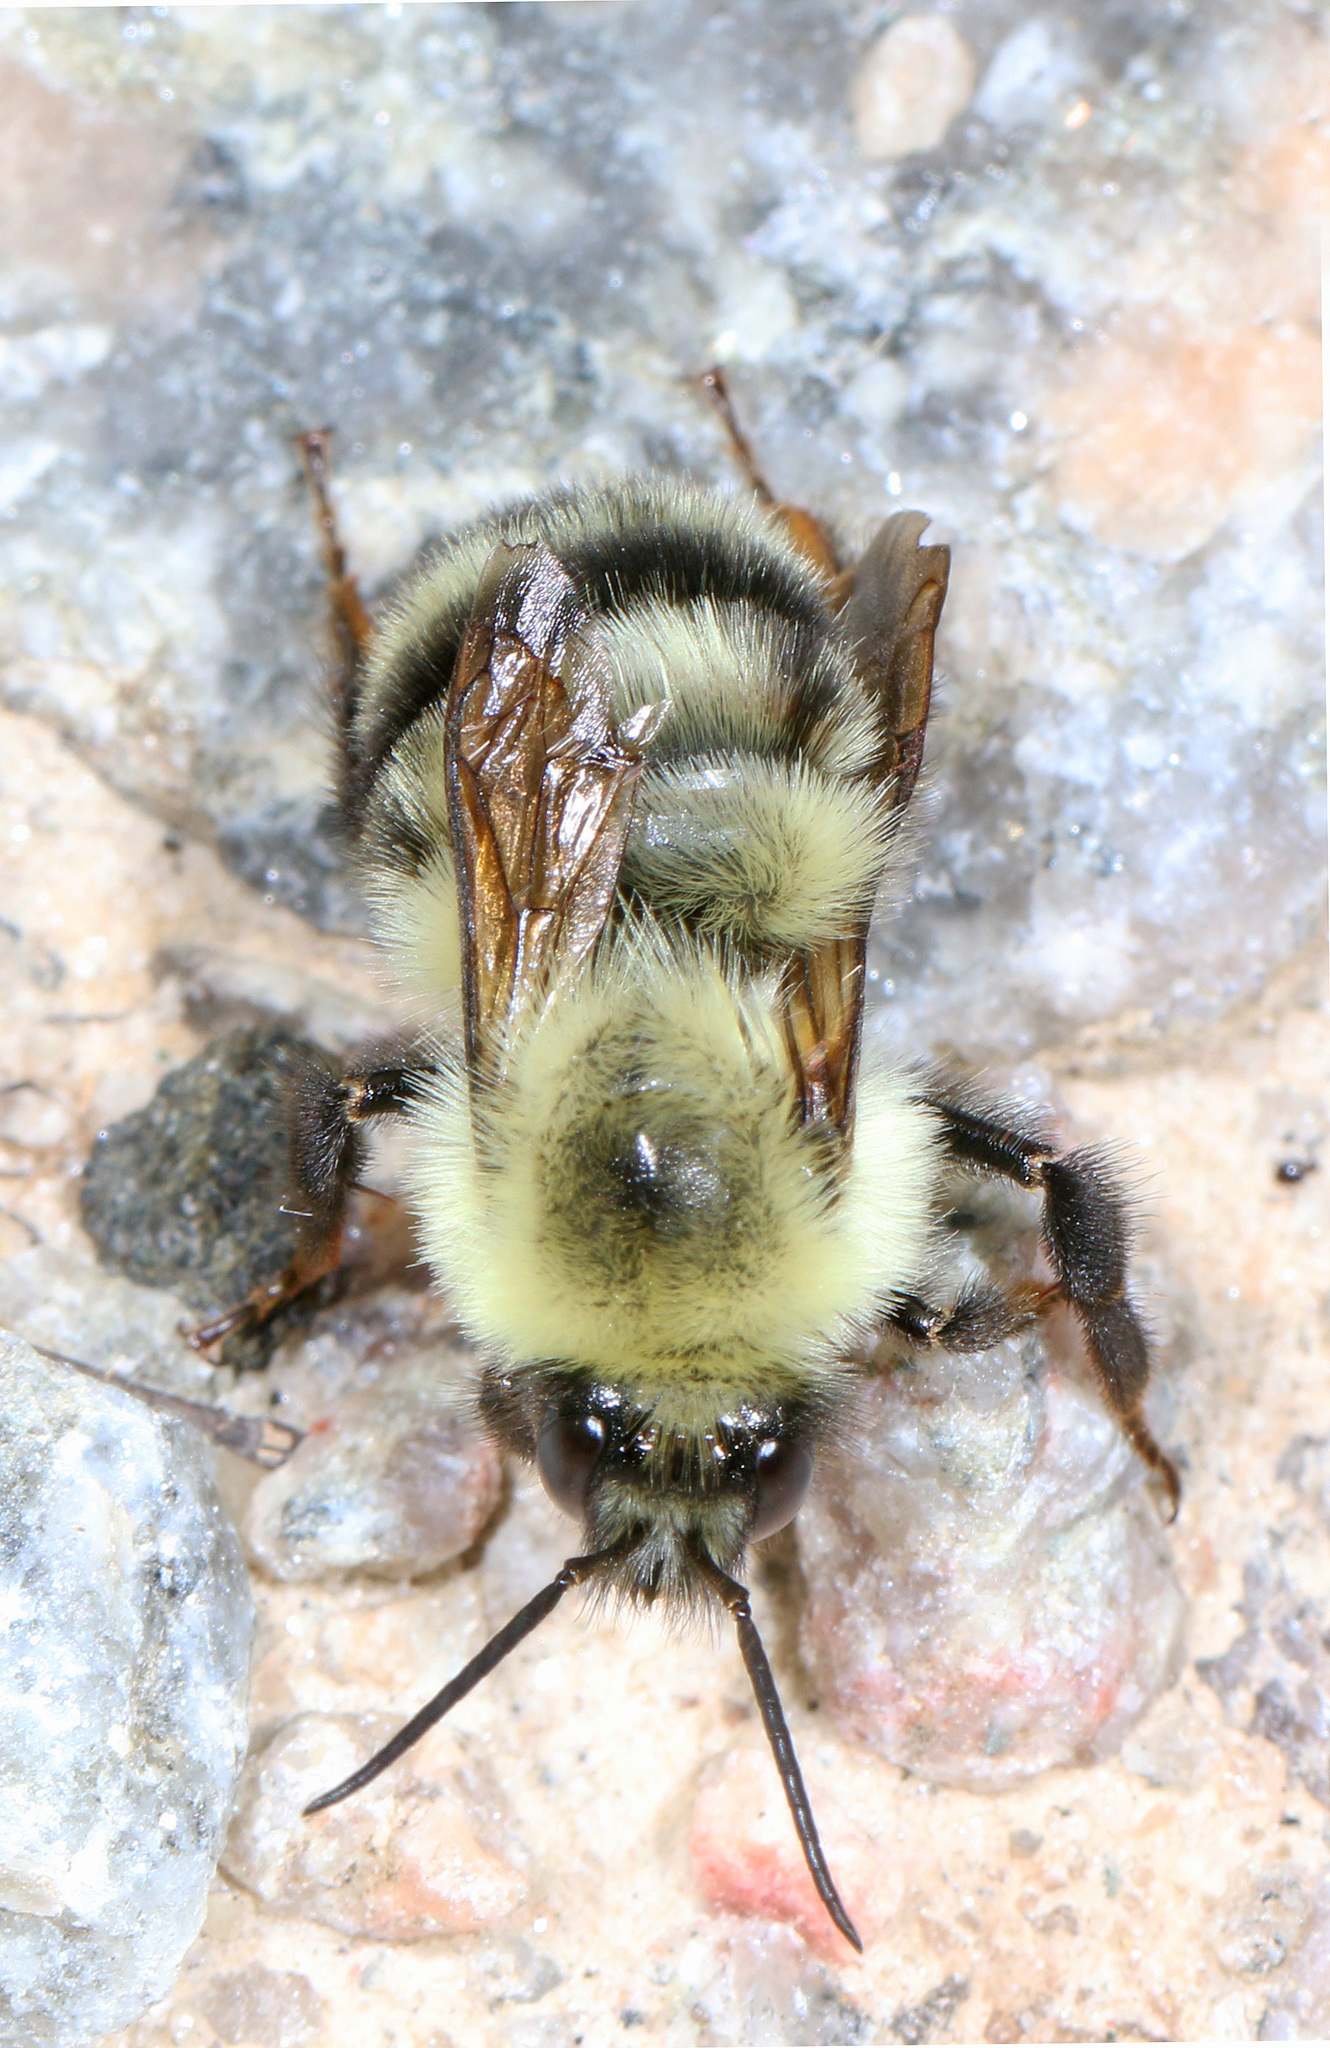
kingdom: Animalia
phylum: Arthropoda
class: Insecta
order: Hymenoptera
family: Apidae
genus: Bombus
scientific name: Bombus bimaculatus
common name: Two-spotted bumble bee
